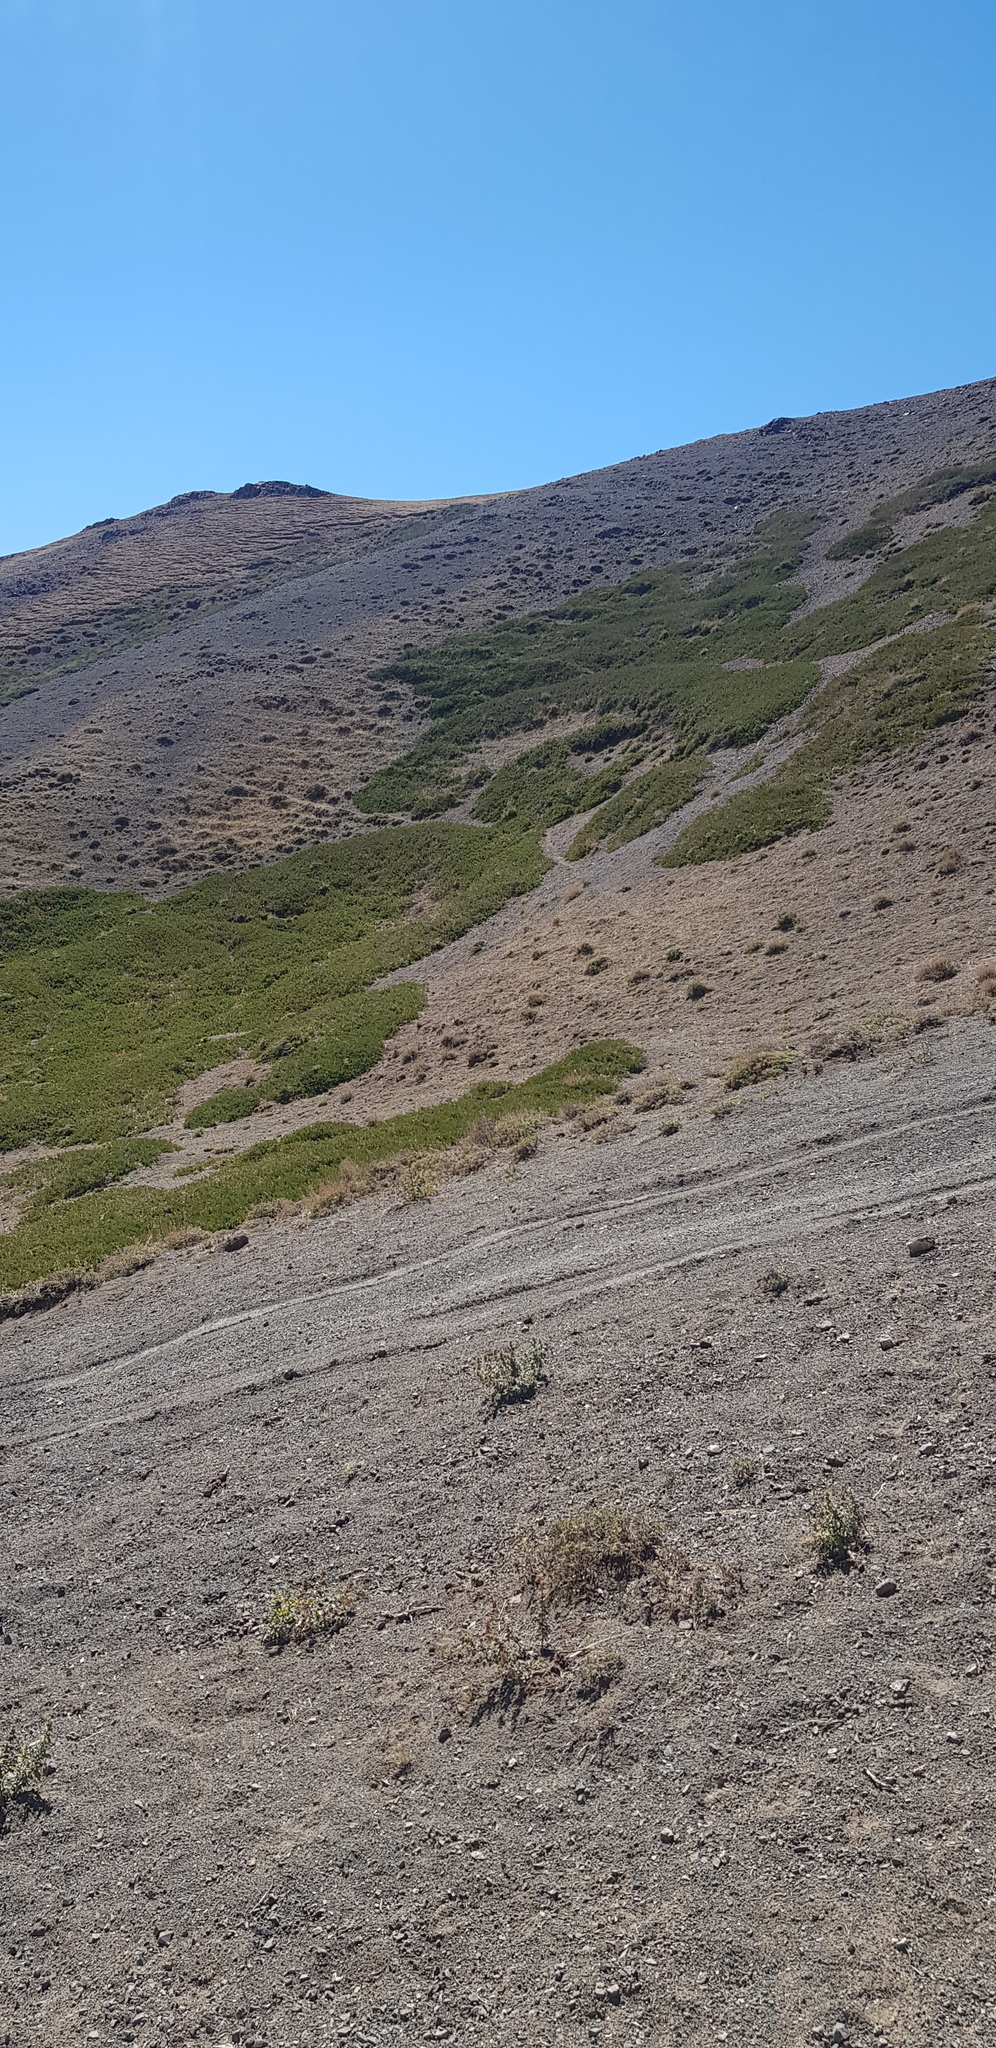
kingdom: Plantae
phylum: Tracheophyta
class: Pinopsida
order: Pinales
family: Cupressaceae
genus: Juniperus
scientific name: Juniperus sabina
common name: Savin
